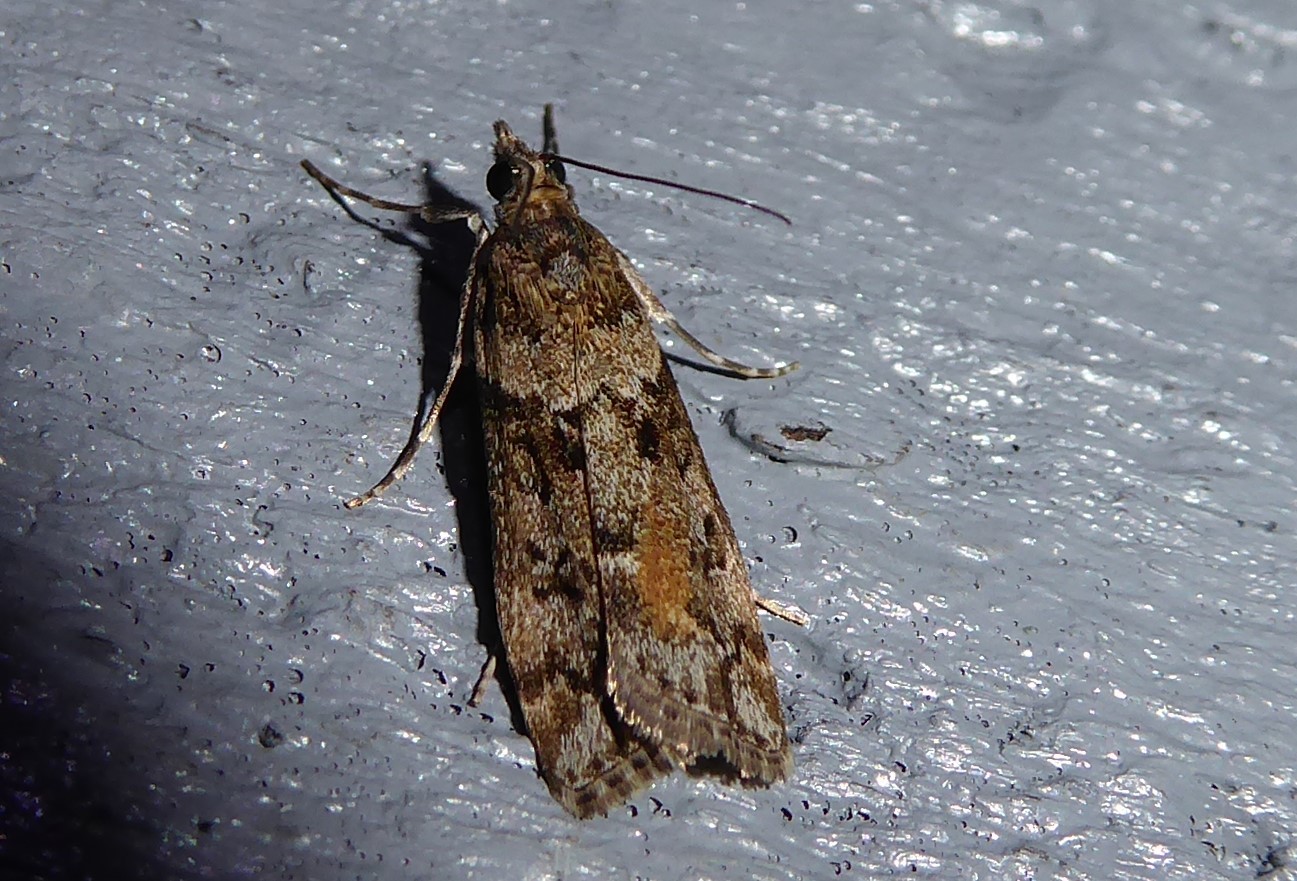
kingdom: Animalia
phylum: Arthropoda
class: Insecta
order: Lepidoptera
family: Crambidae
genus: Eudonia
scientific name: Eudonia submarginalis
